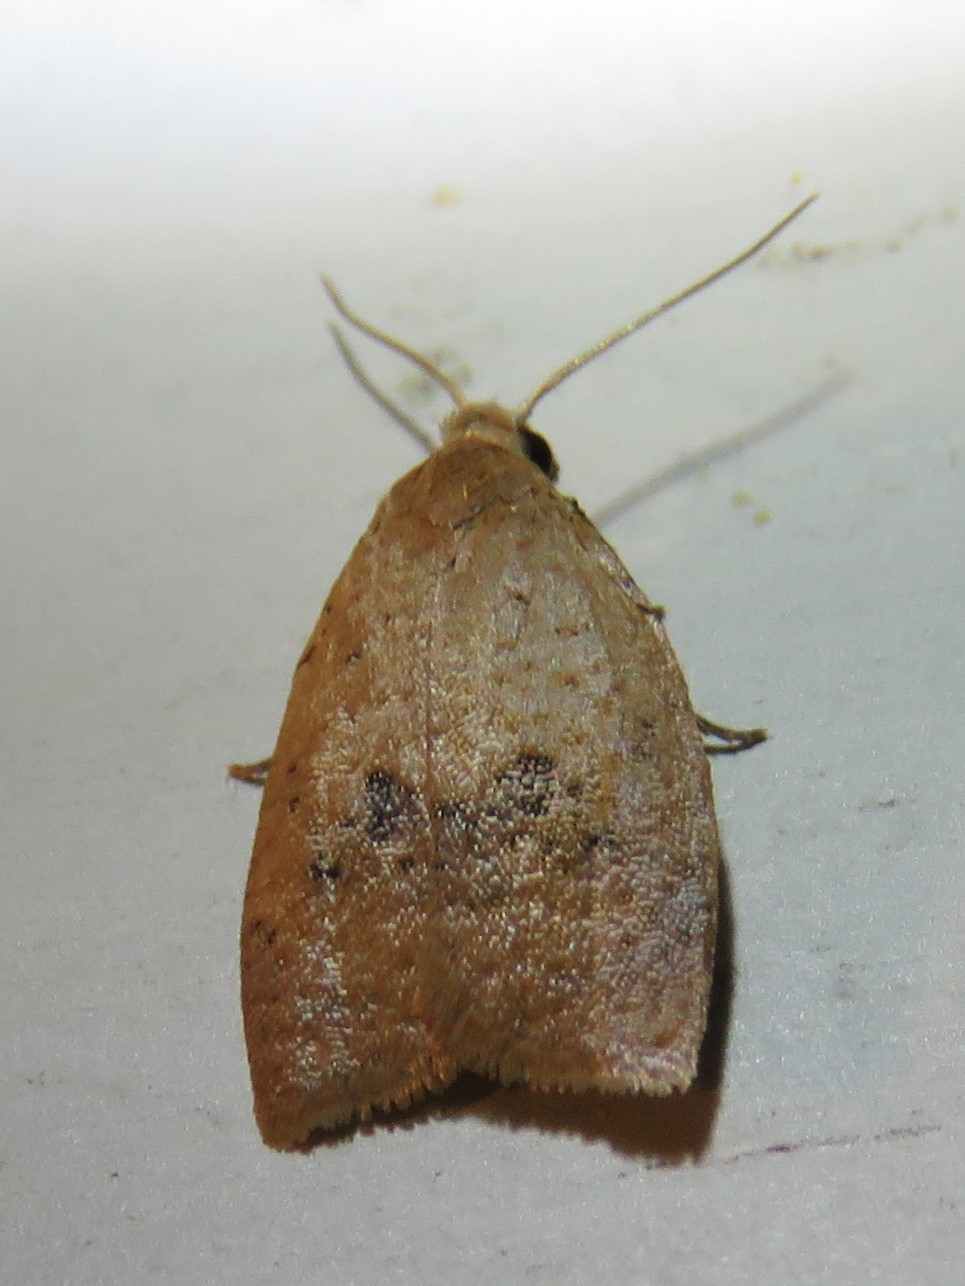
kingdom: Animalia
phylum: Arthropoda
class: Insecta
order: Lepidoptera
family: Tortricidae
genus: Sparganothoides
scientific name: Sparganothoides lentiginosana
